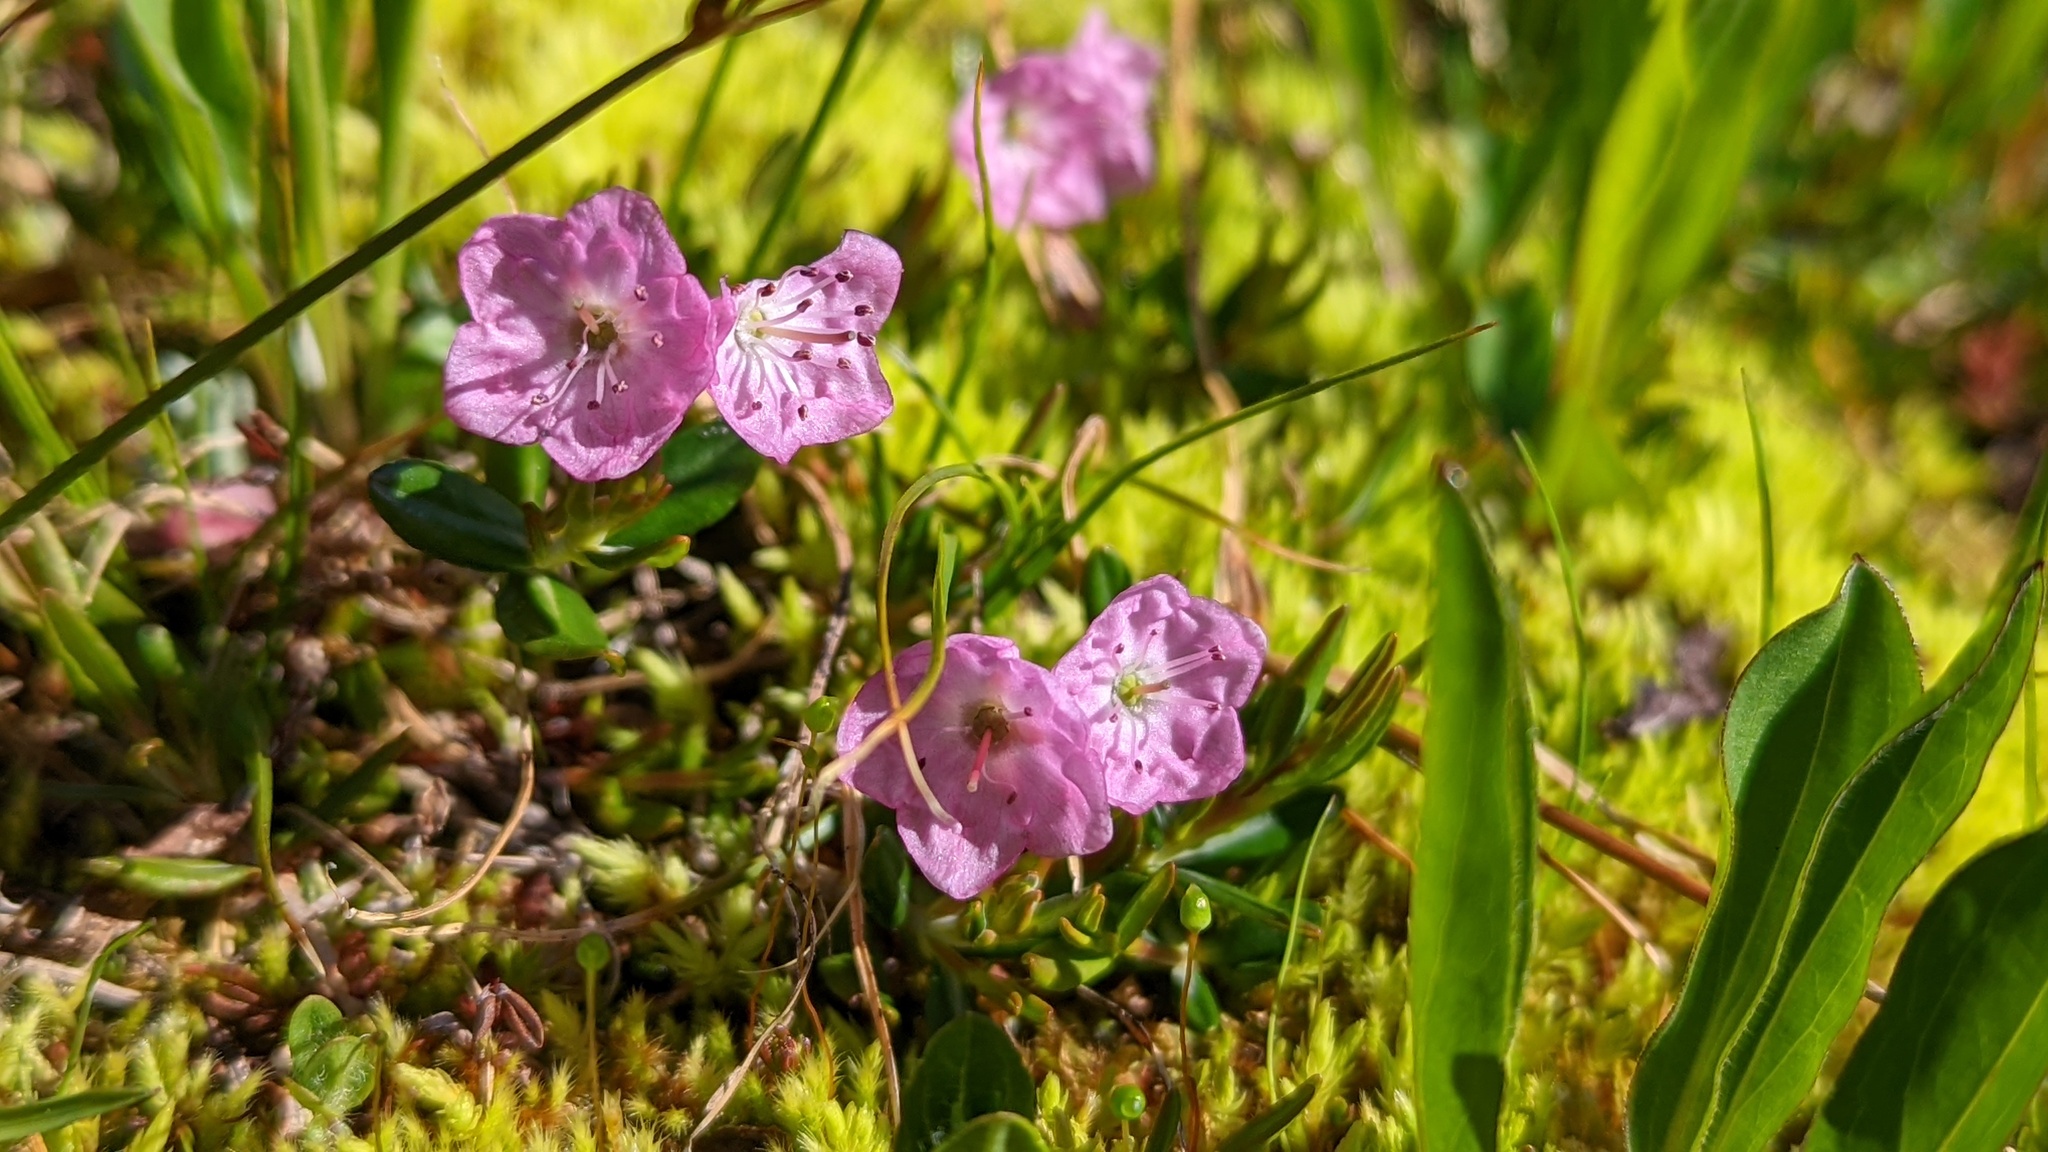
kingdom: Plantae
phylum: Tracheophyta
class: Magnoliopsida
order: Ericales
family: Ericaceae
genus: Kalmia
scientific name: Kalmia microphylla
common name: Alpine bog laurel
